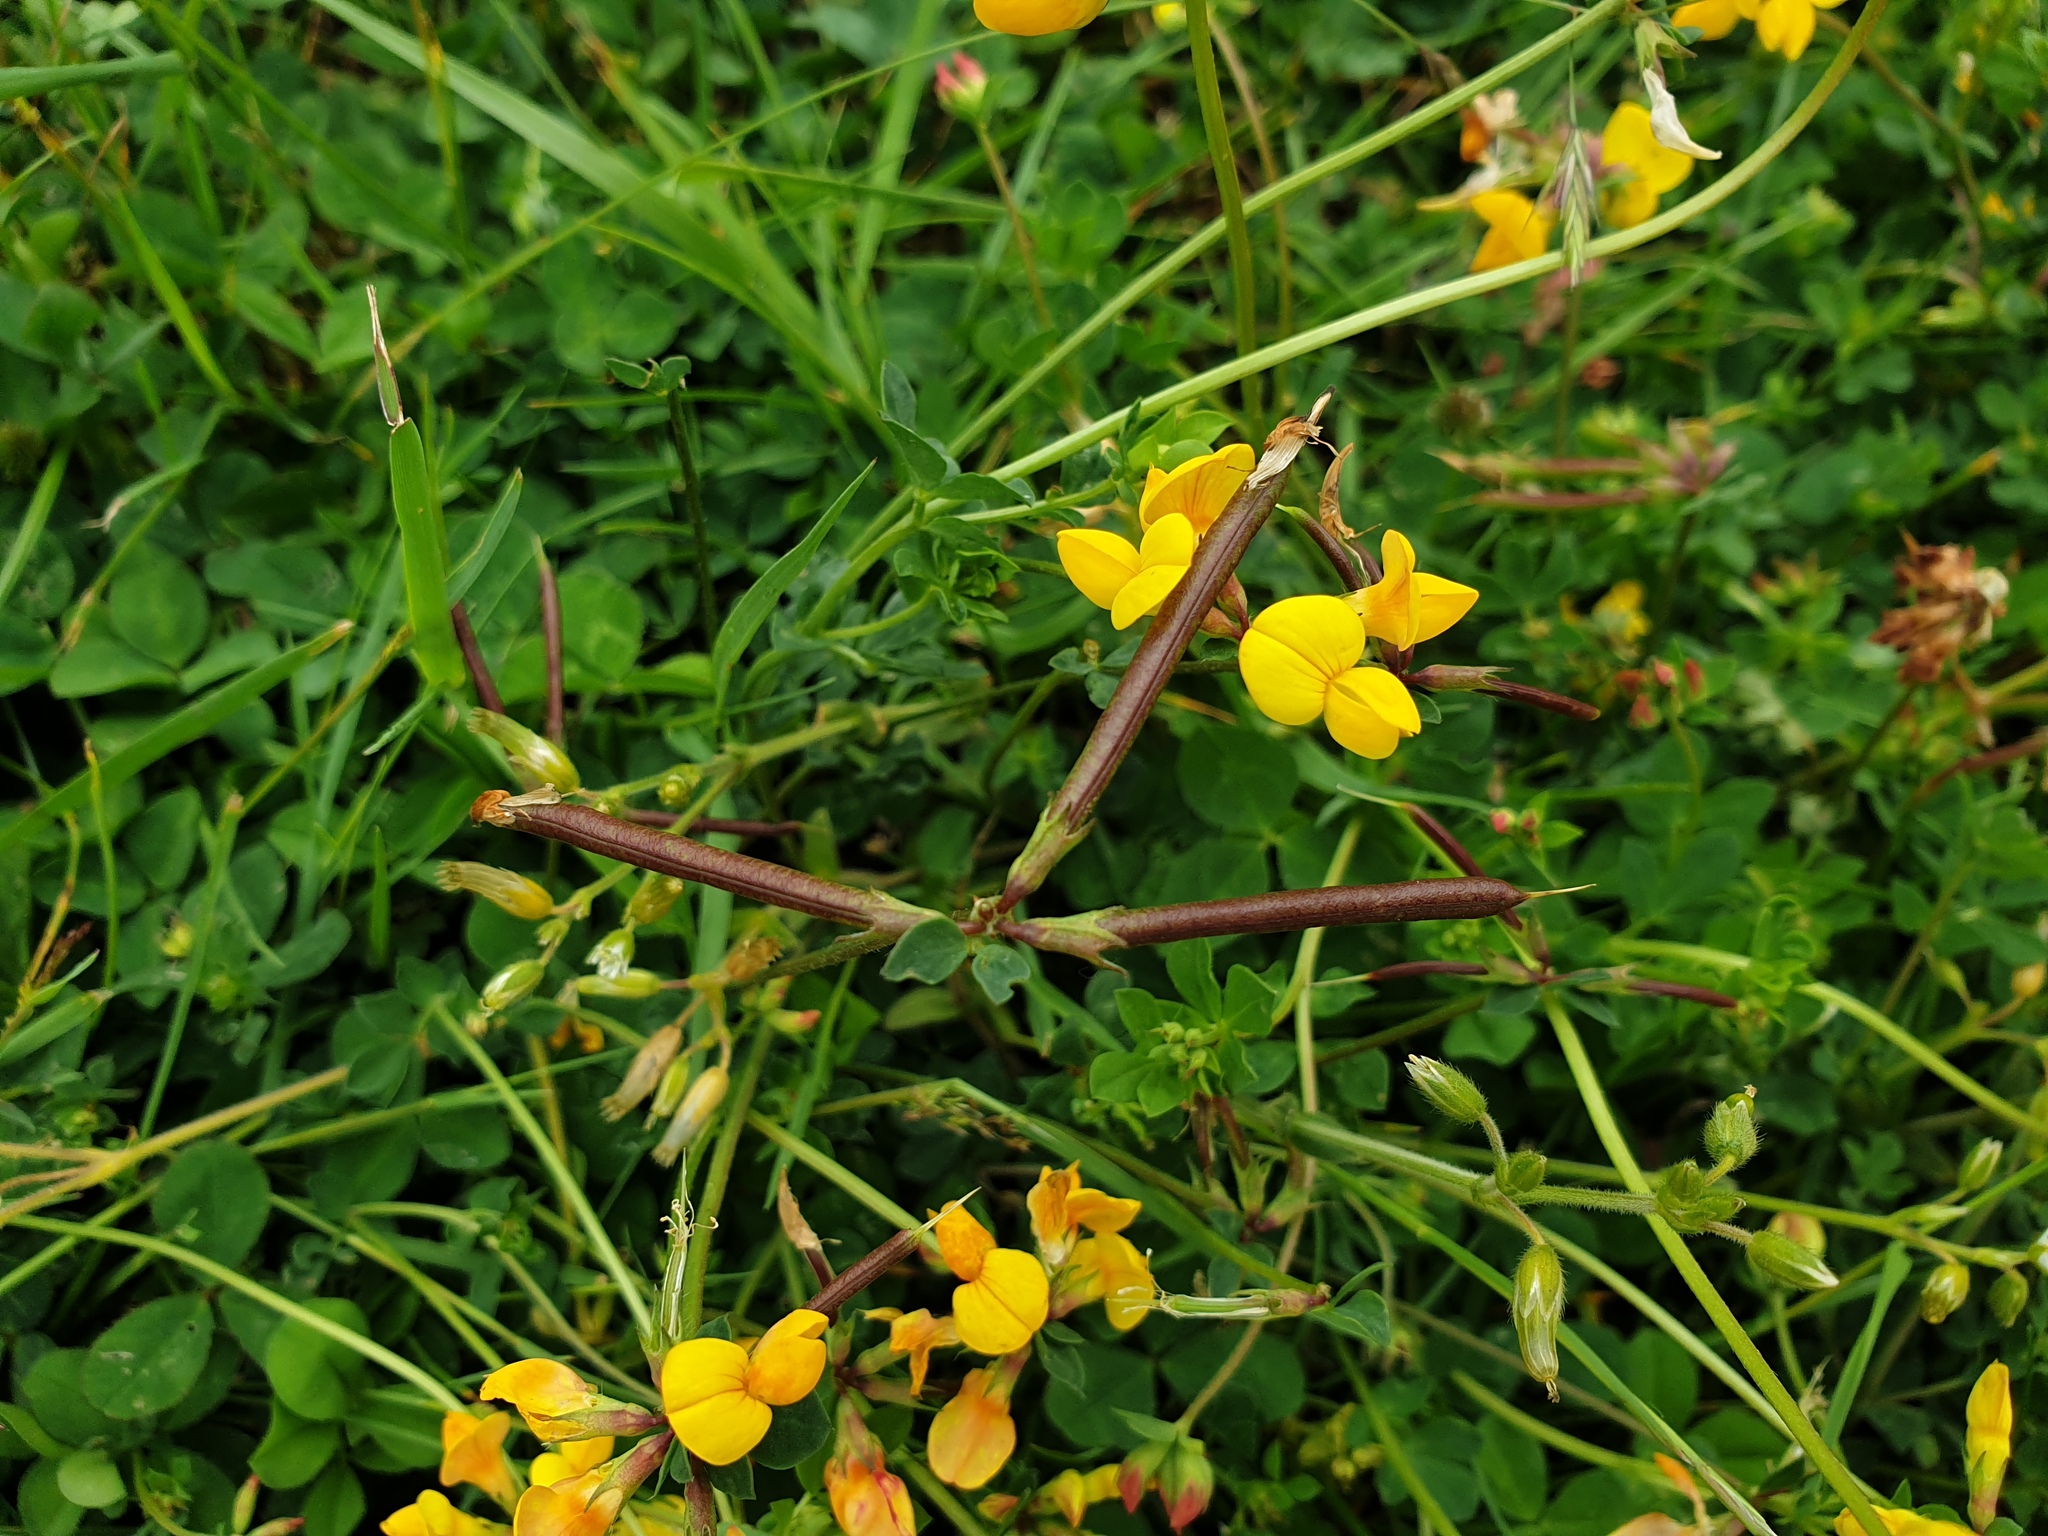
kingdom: Plantae
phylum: Tracheophyta
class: Magnoliopsida
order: Fabales
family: Fabaceae
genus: Lotus
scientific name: Lotus corniculatus
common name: Common bird's-foot-trefoil
